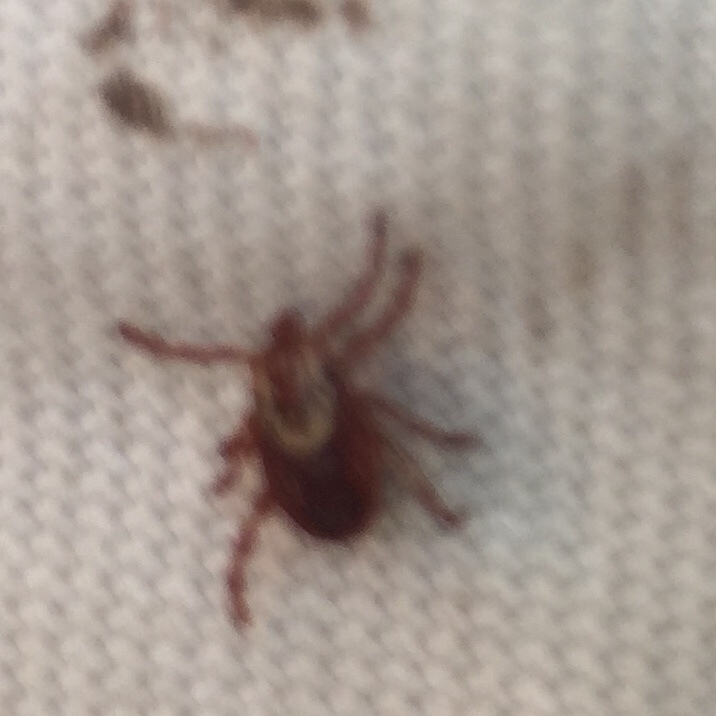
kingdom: Animalia
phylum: Arthropoda
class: Arachnida
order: Ixodida
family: Ixodidae
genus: Dermacentor
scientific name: Dermacentor variabilis
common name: American dog tick
